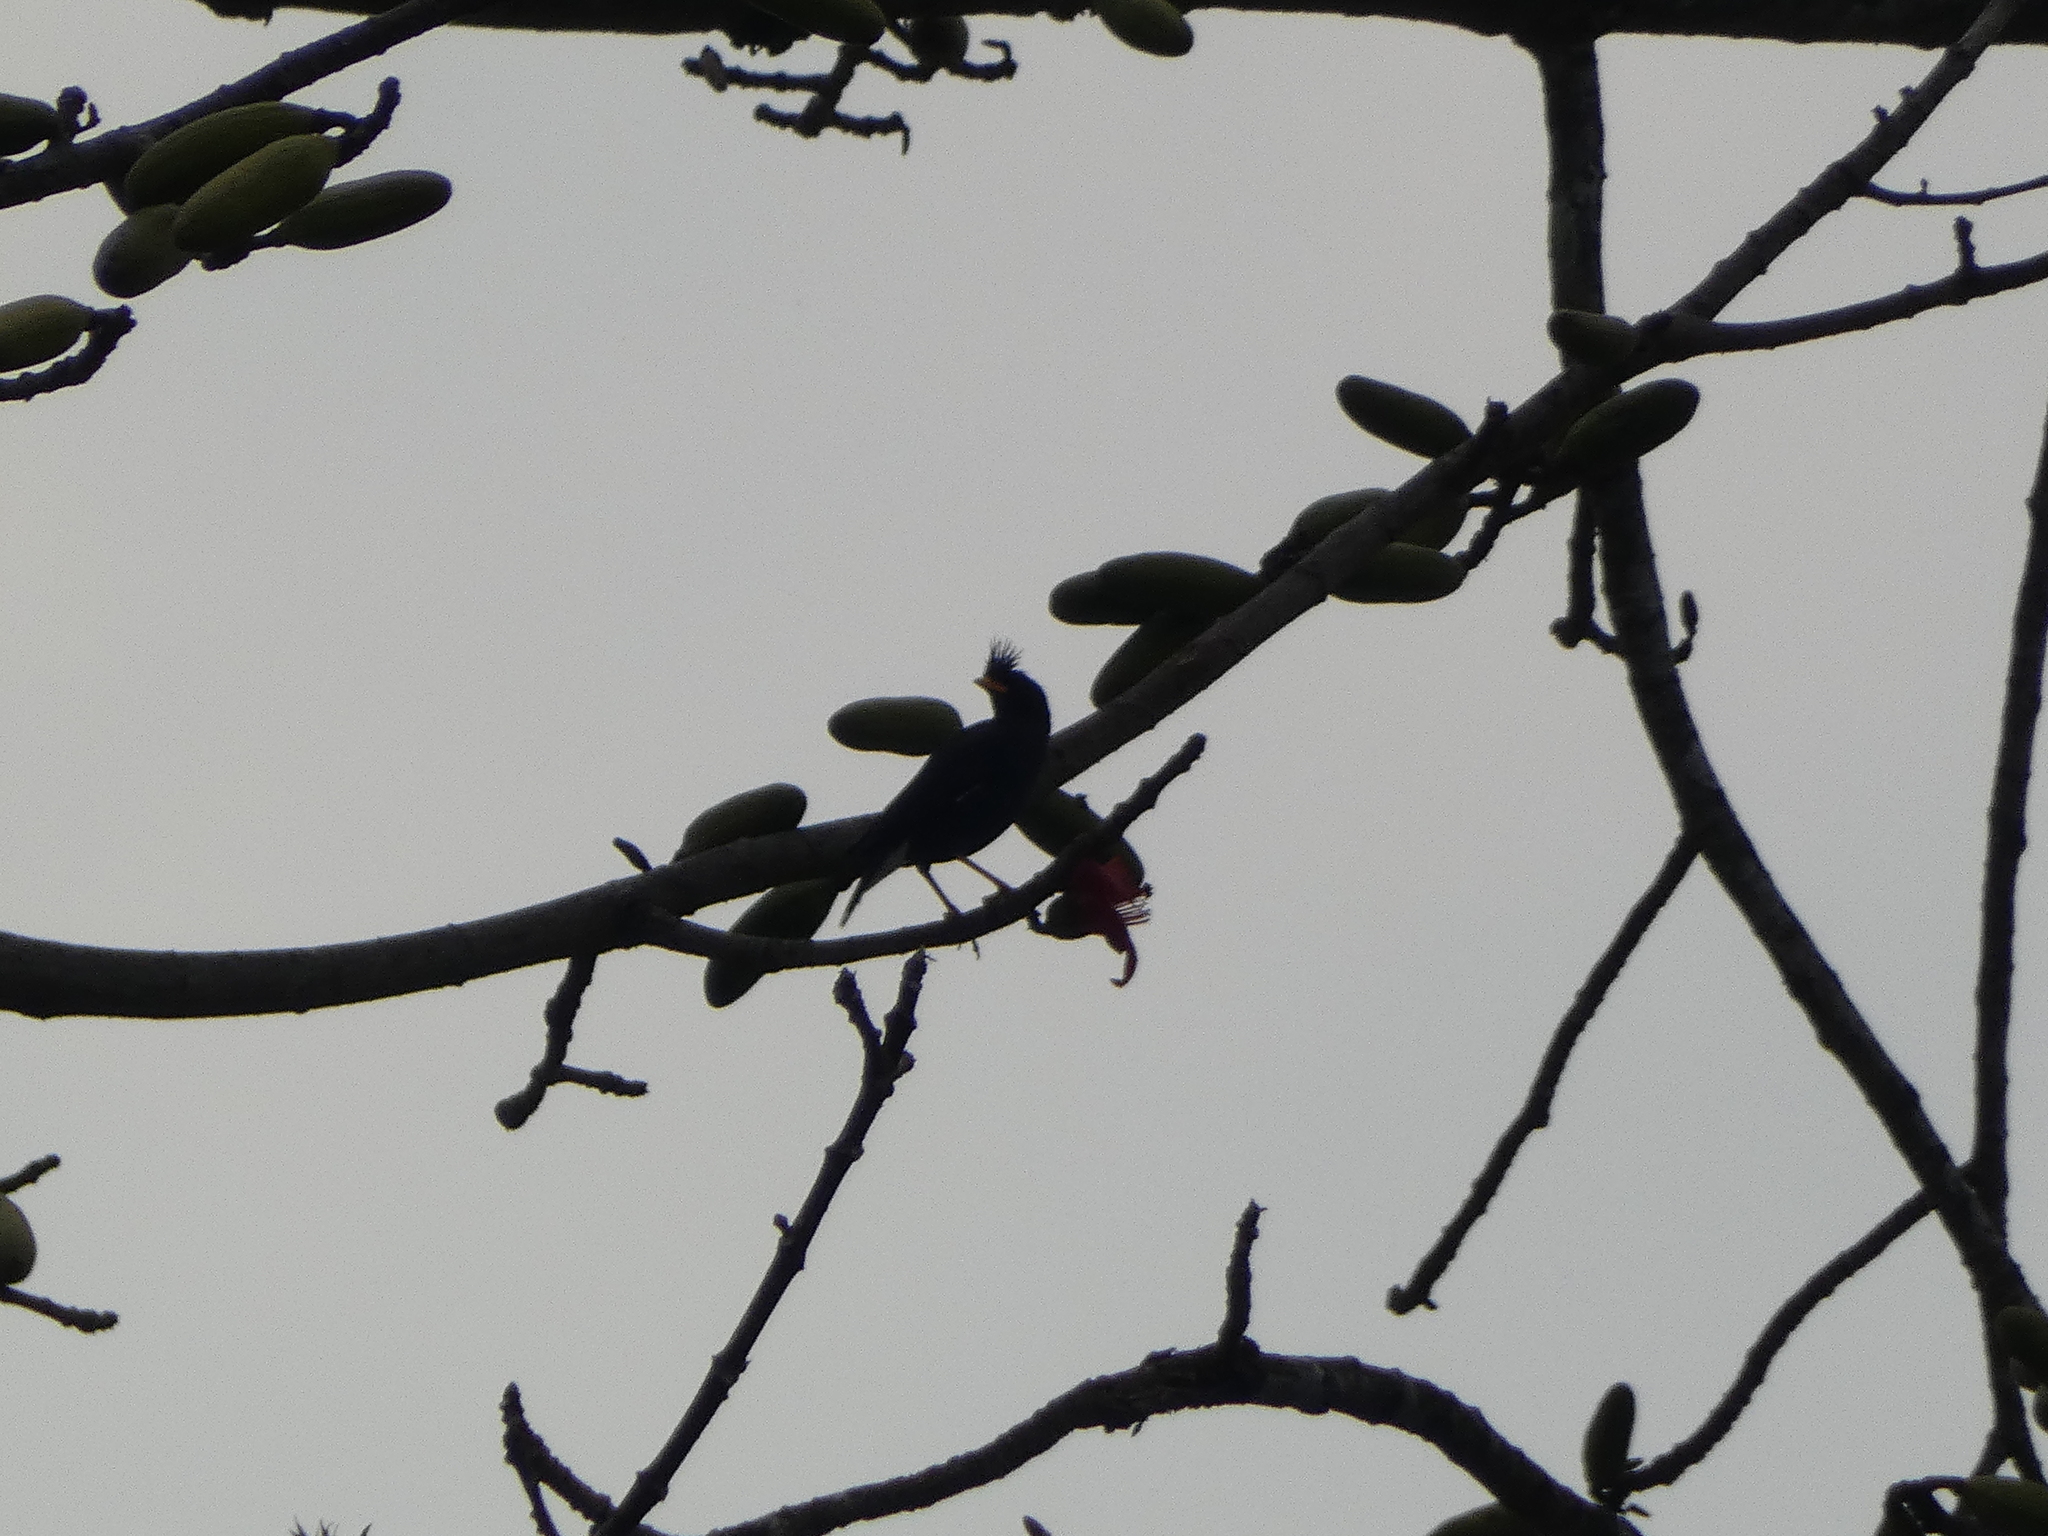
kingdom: Animalia
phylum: Chordata
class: Aves
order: Passeriformes
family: Sturnidae
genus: Acridotheres
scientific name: Acridotheres grandis
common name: Great myna
